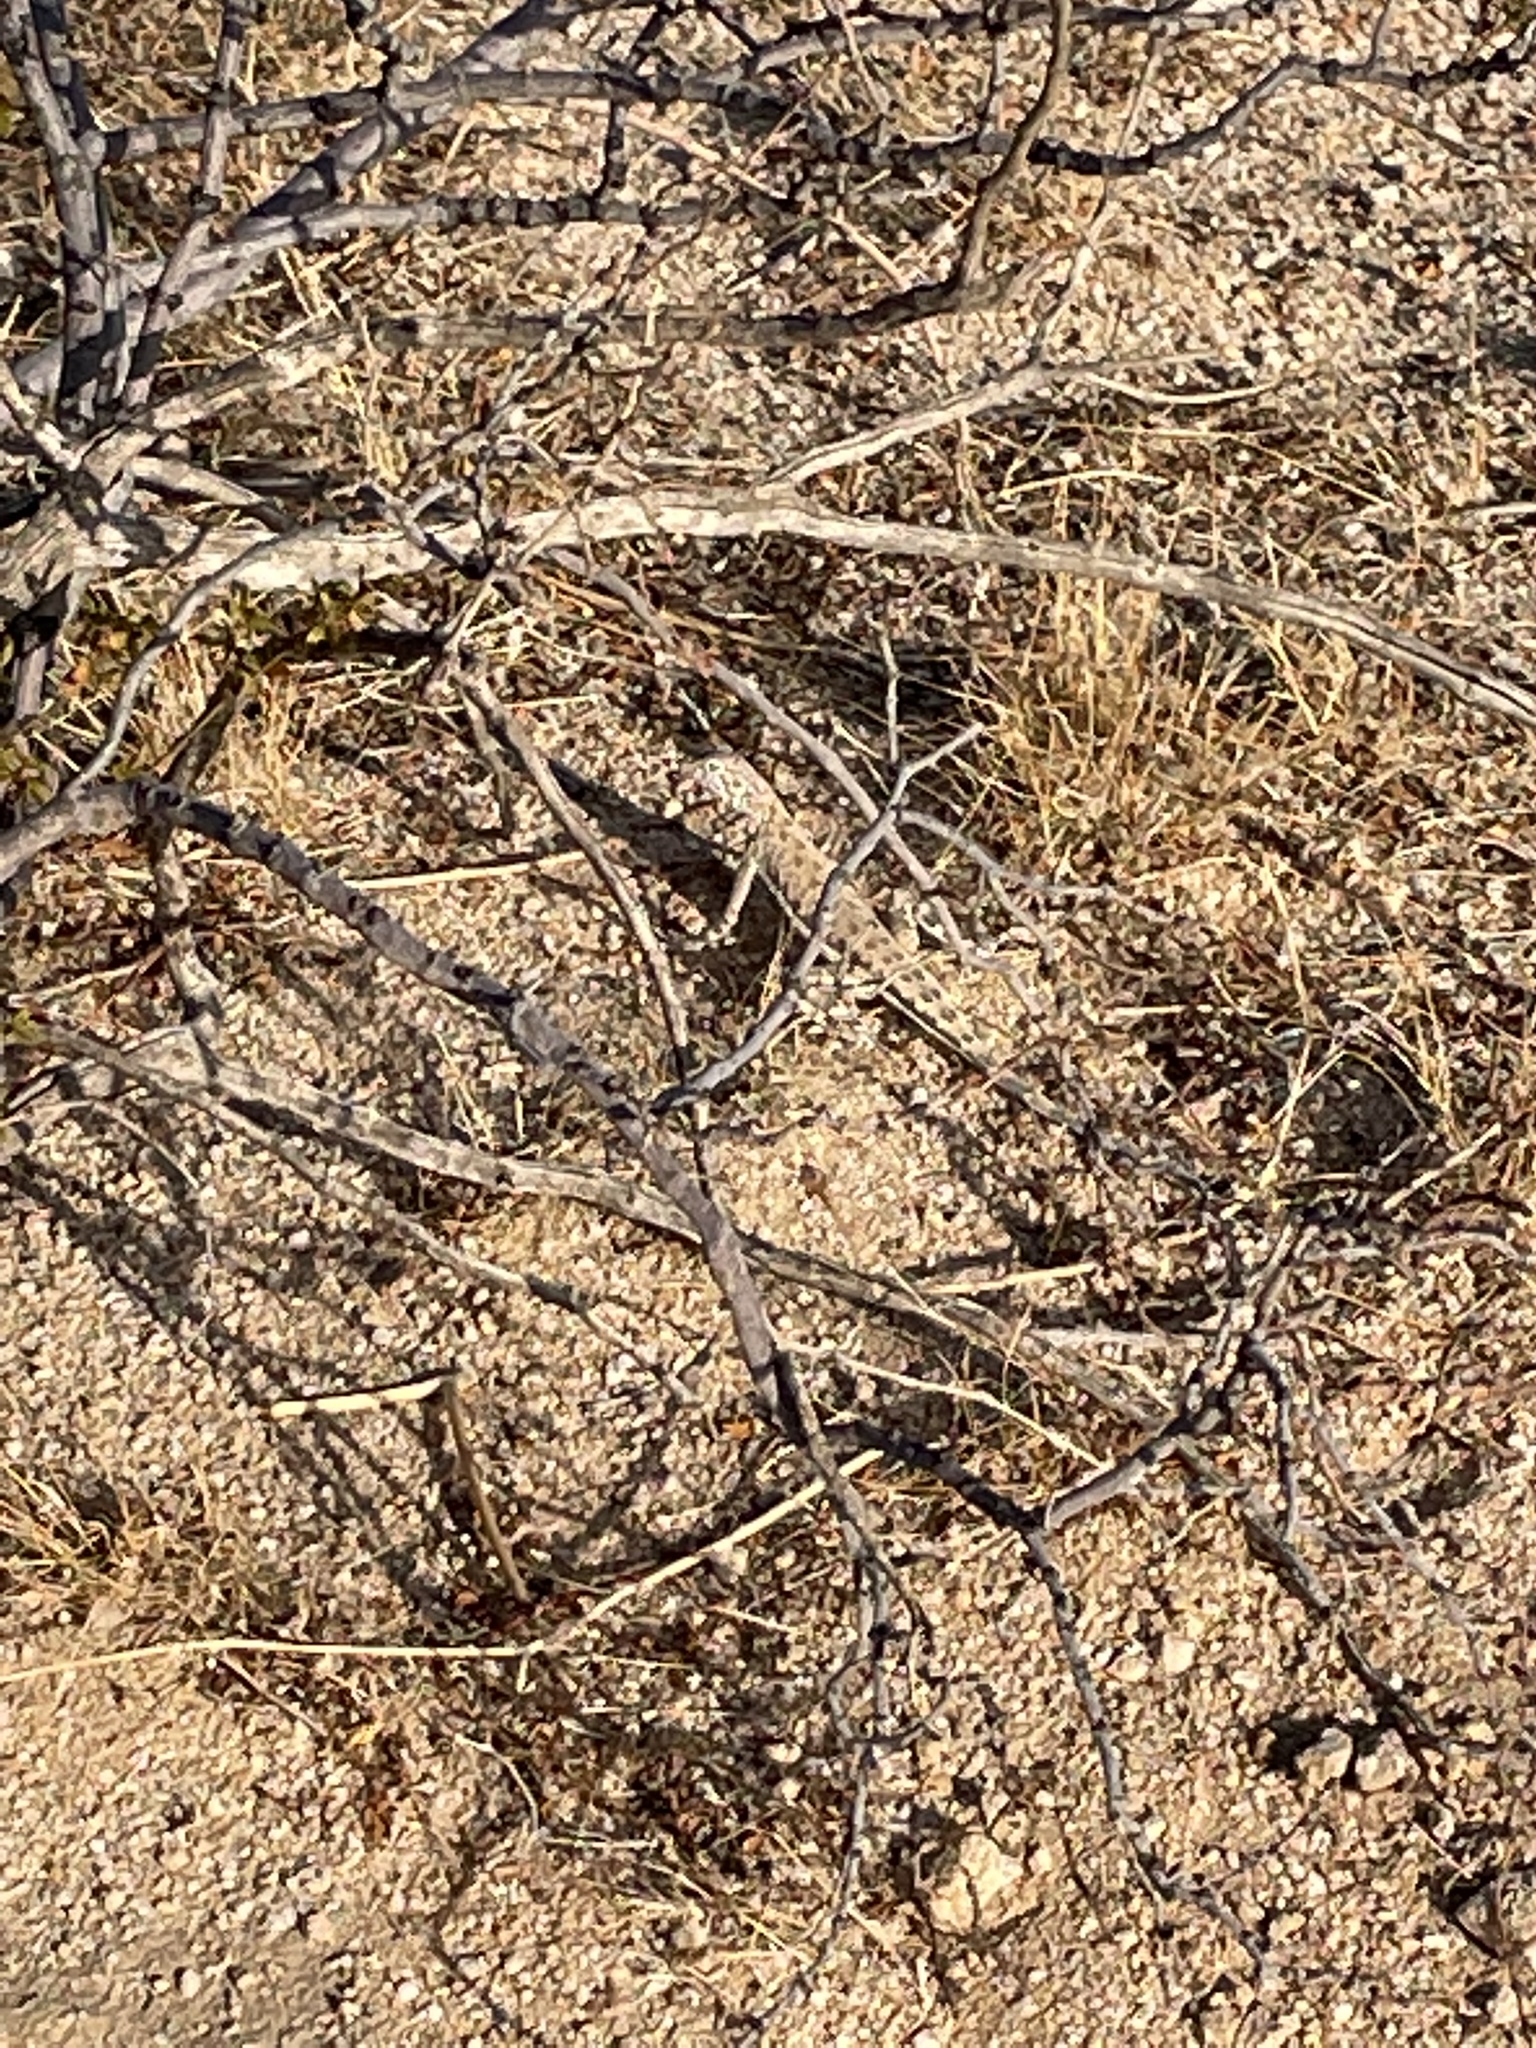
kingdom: Animalia
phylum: Chordata
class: Squamata
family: Phrynosomatidae
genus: Callisaurus
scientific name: Callisaurus draconoides
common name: Zebra-tailed lizard
